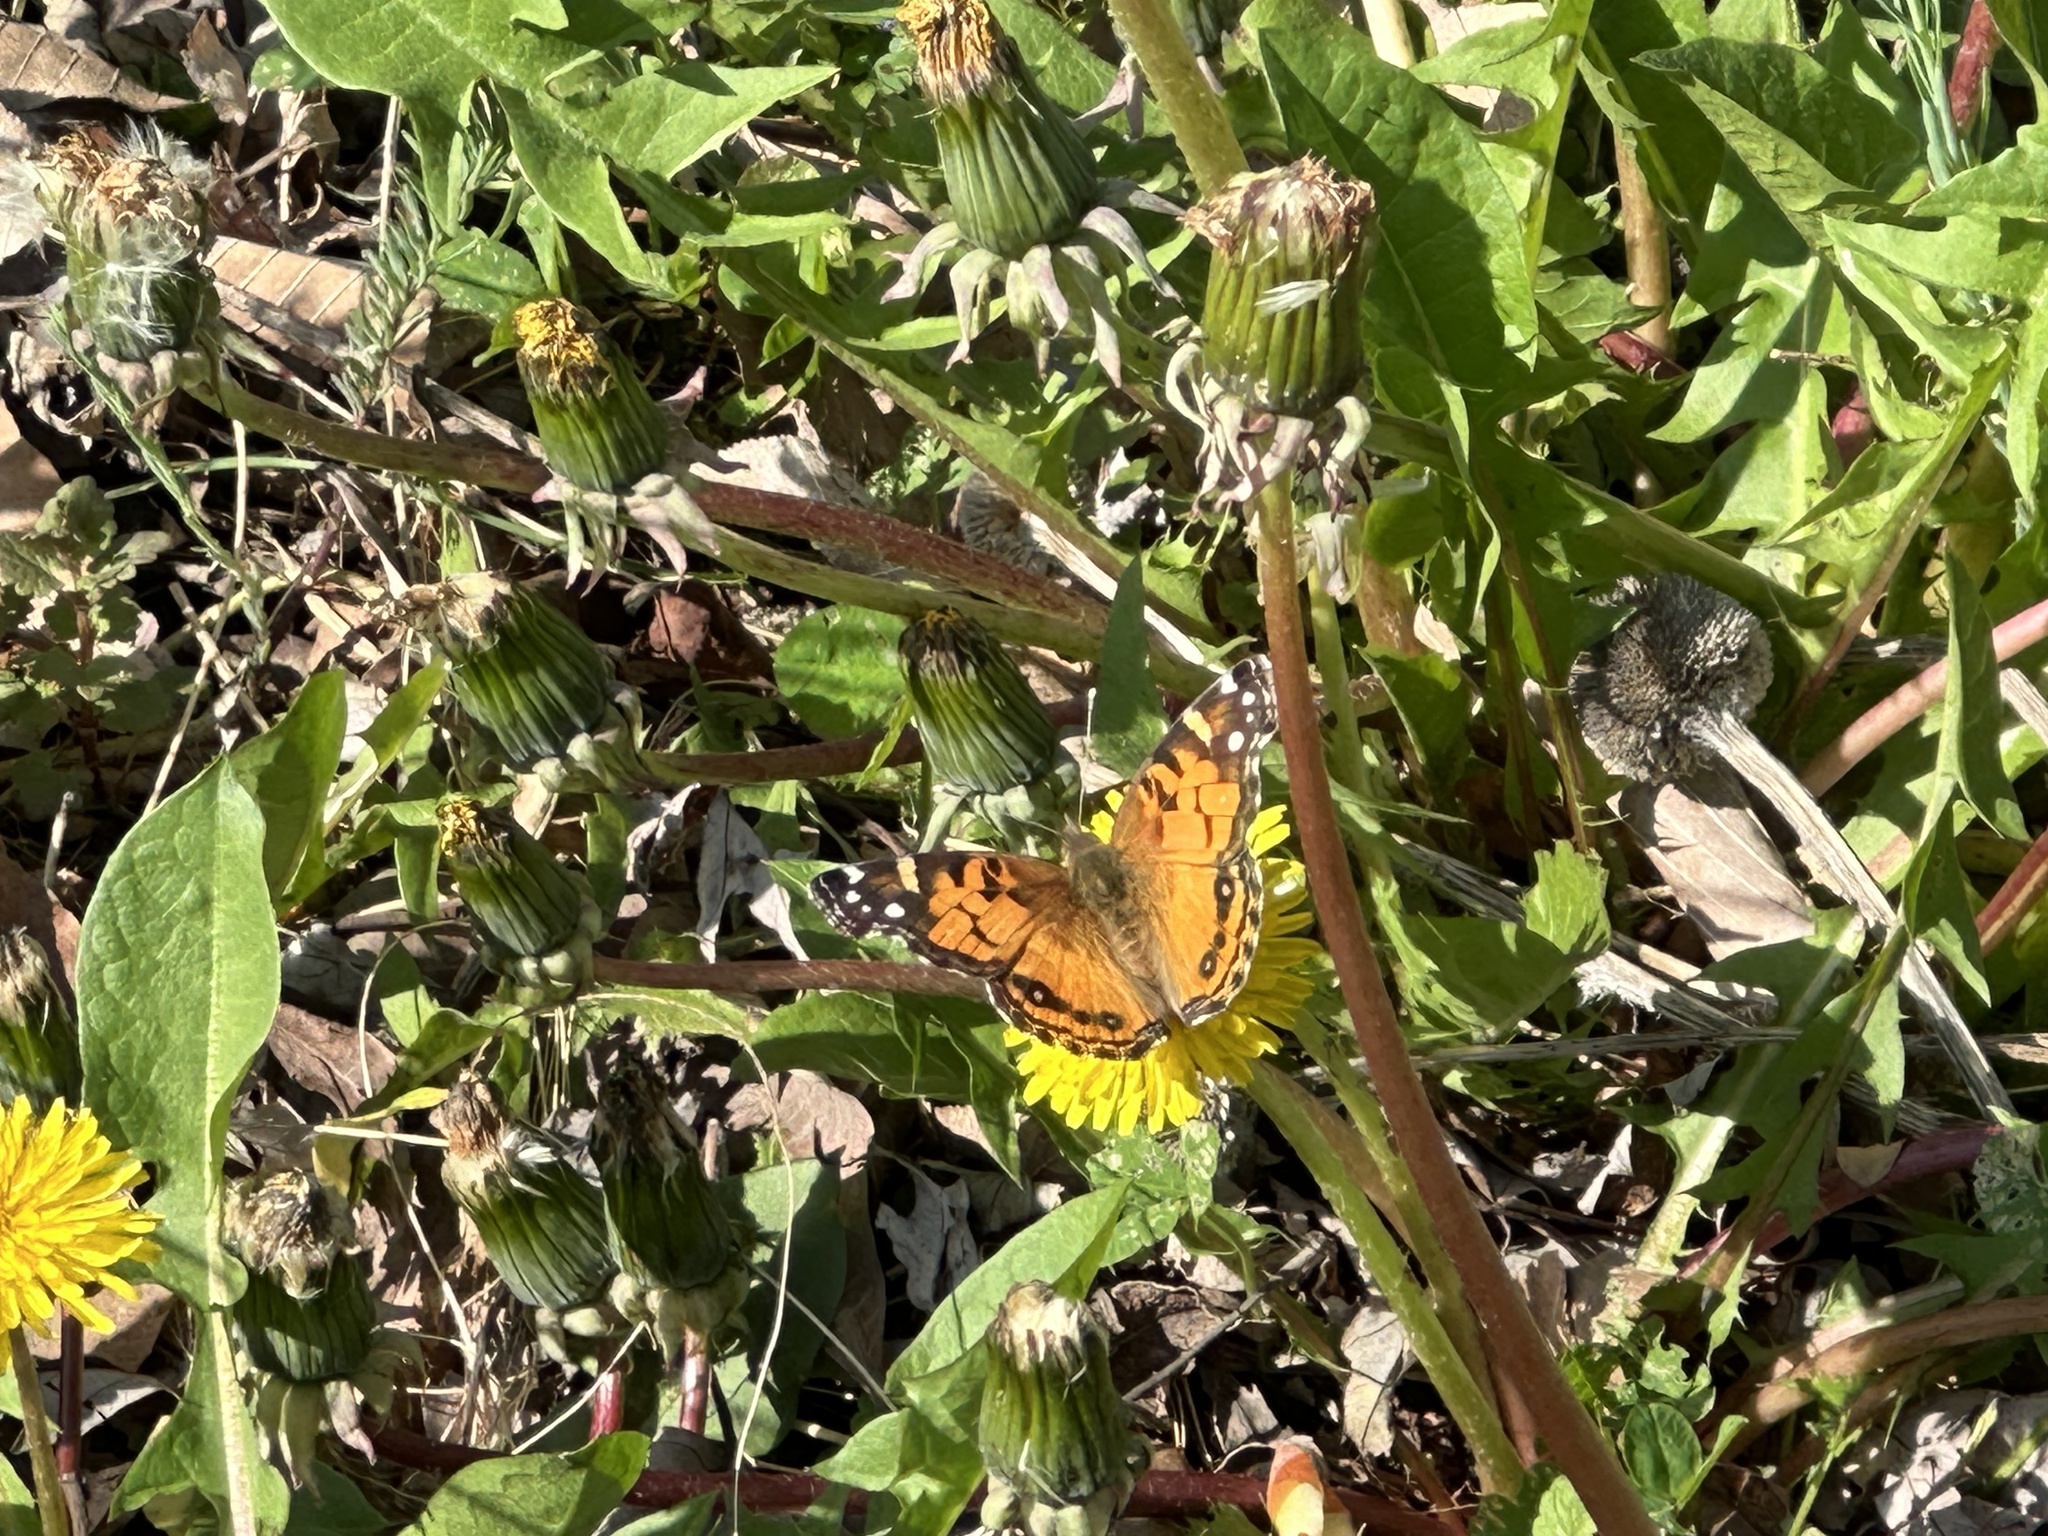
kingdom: Animalia
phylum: Arthropoda
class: Insecta
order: Lepidoptera
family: Nymphalidae
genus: Vanessa
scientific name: Vanessa virginiensis
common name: American lady
